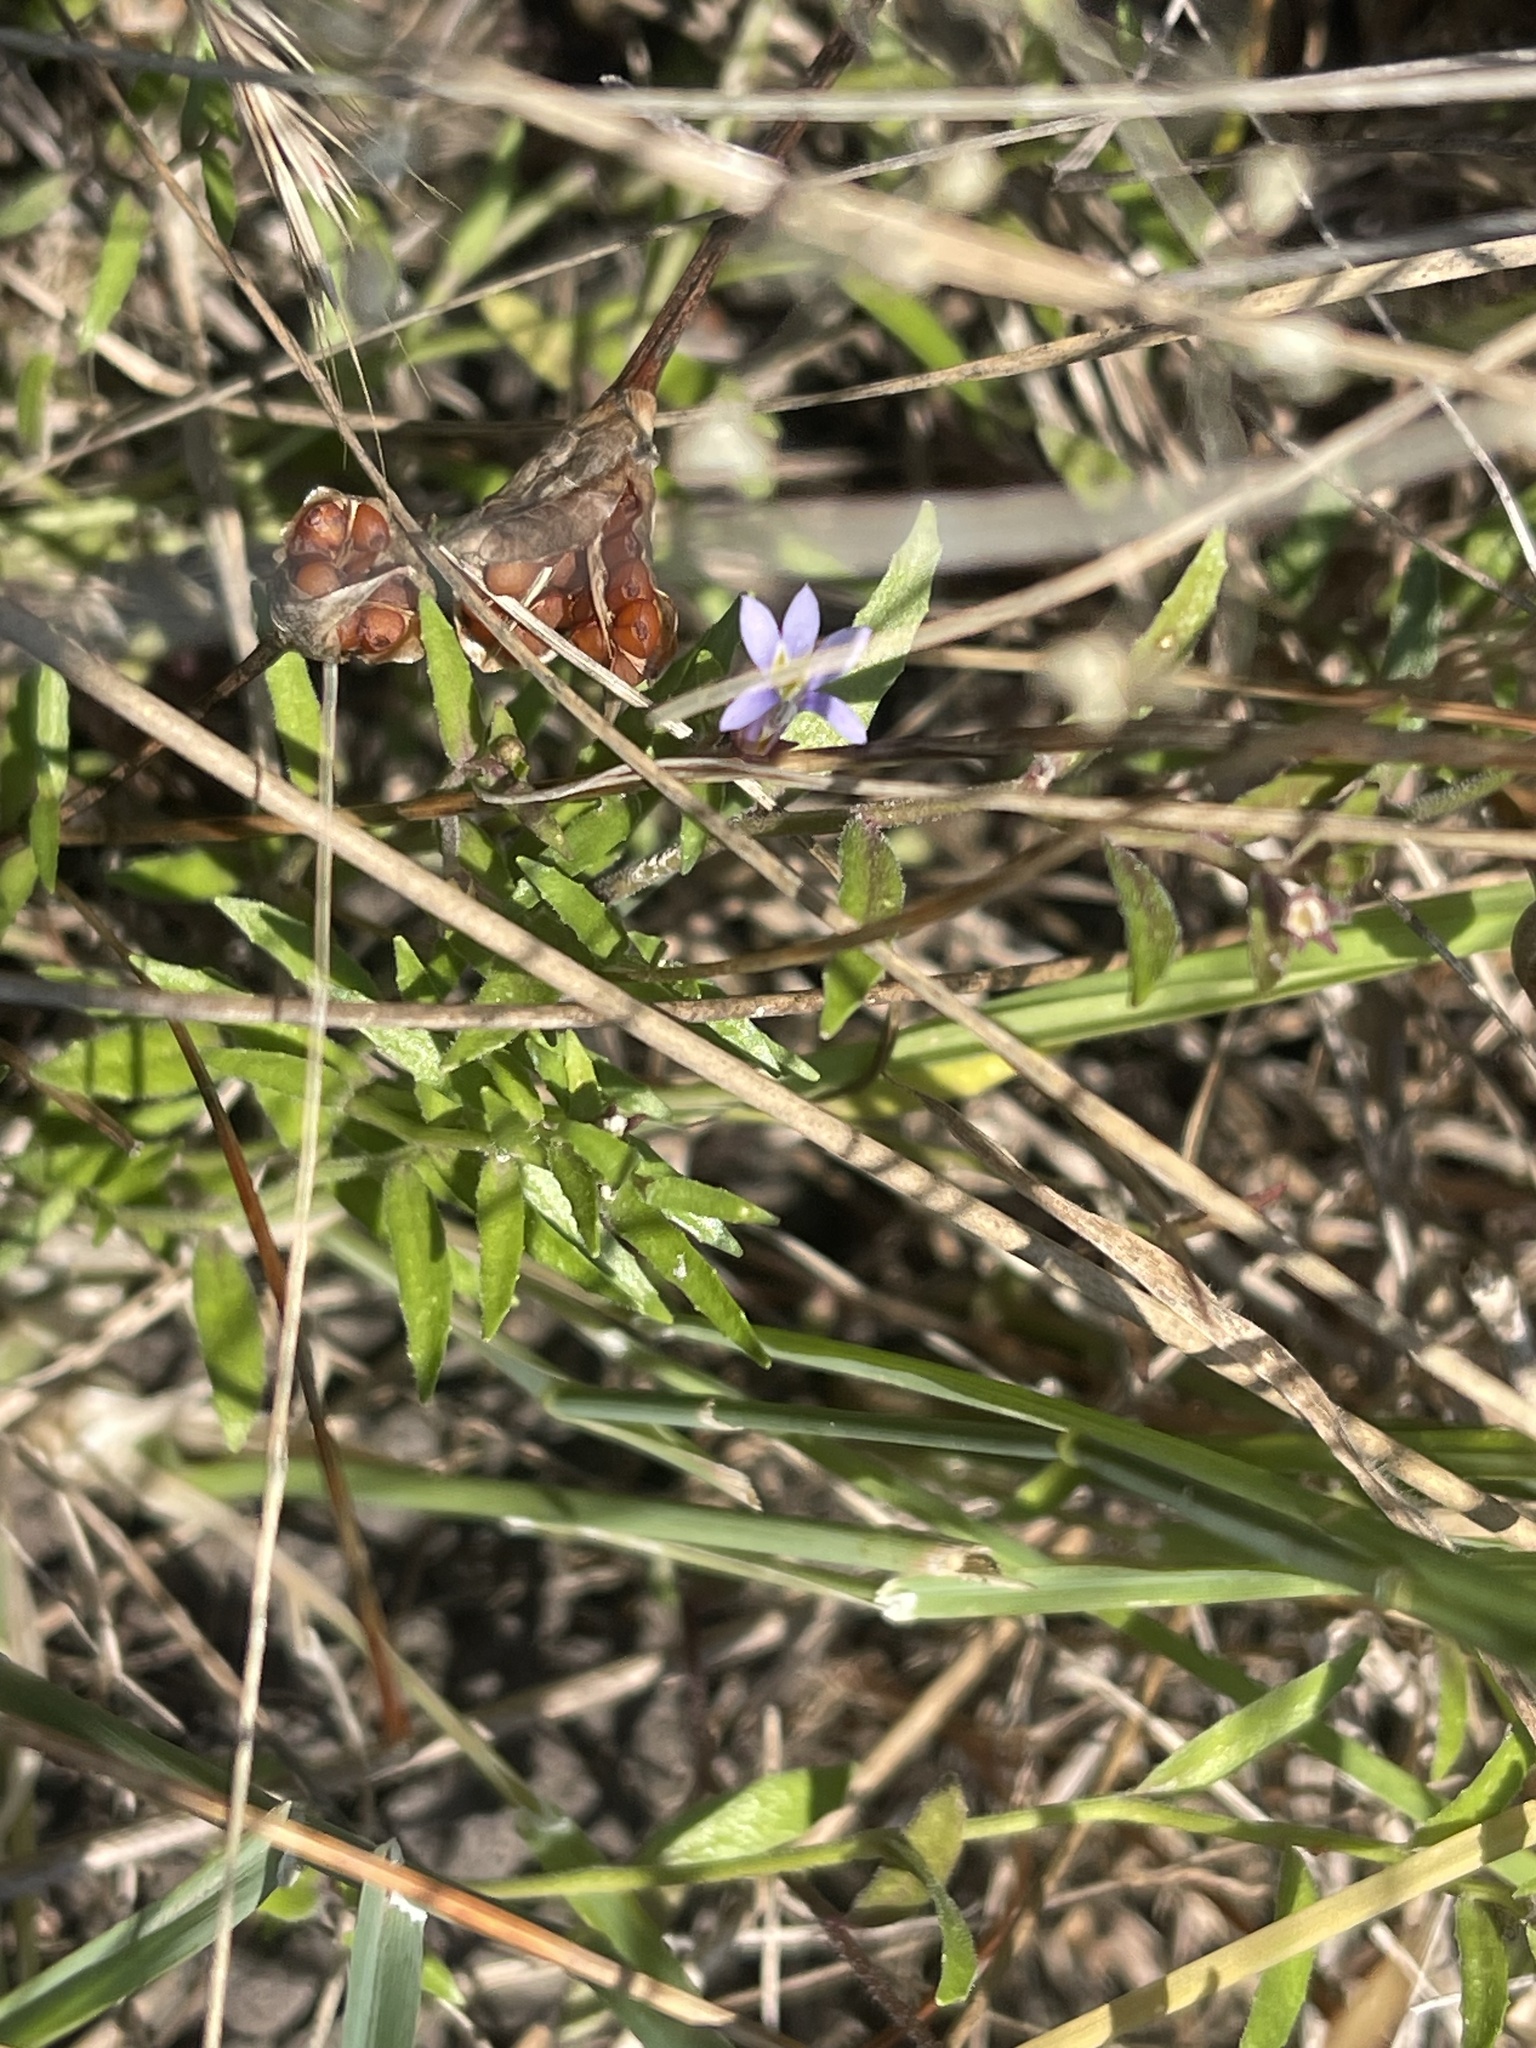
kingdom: Plantae
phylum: Tracheophyta
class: Magnoliopsida
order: Asterales
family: Campanulaceae
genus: Lobelia
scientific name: Lobelia pratioides
